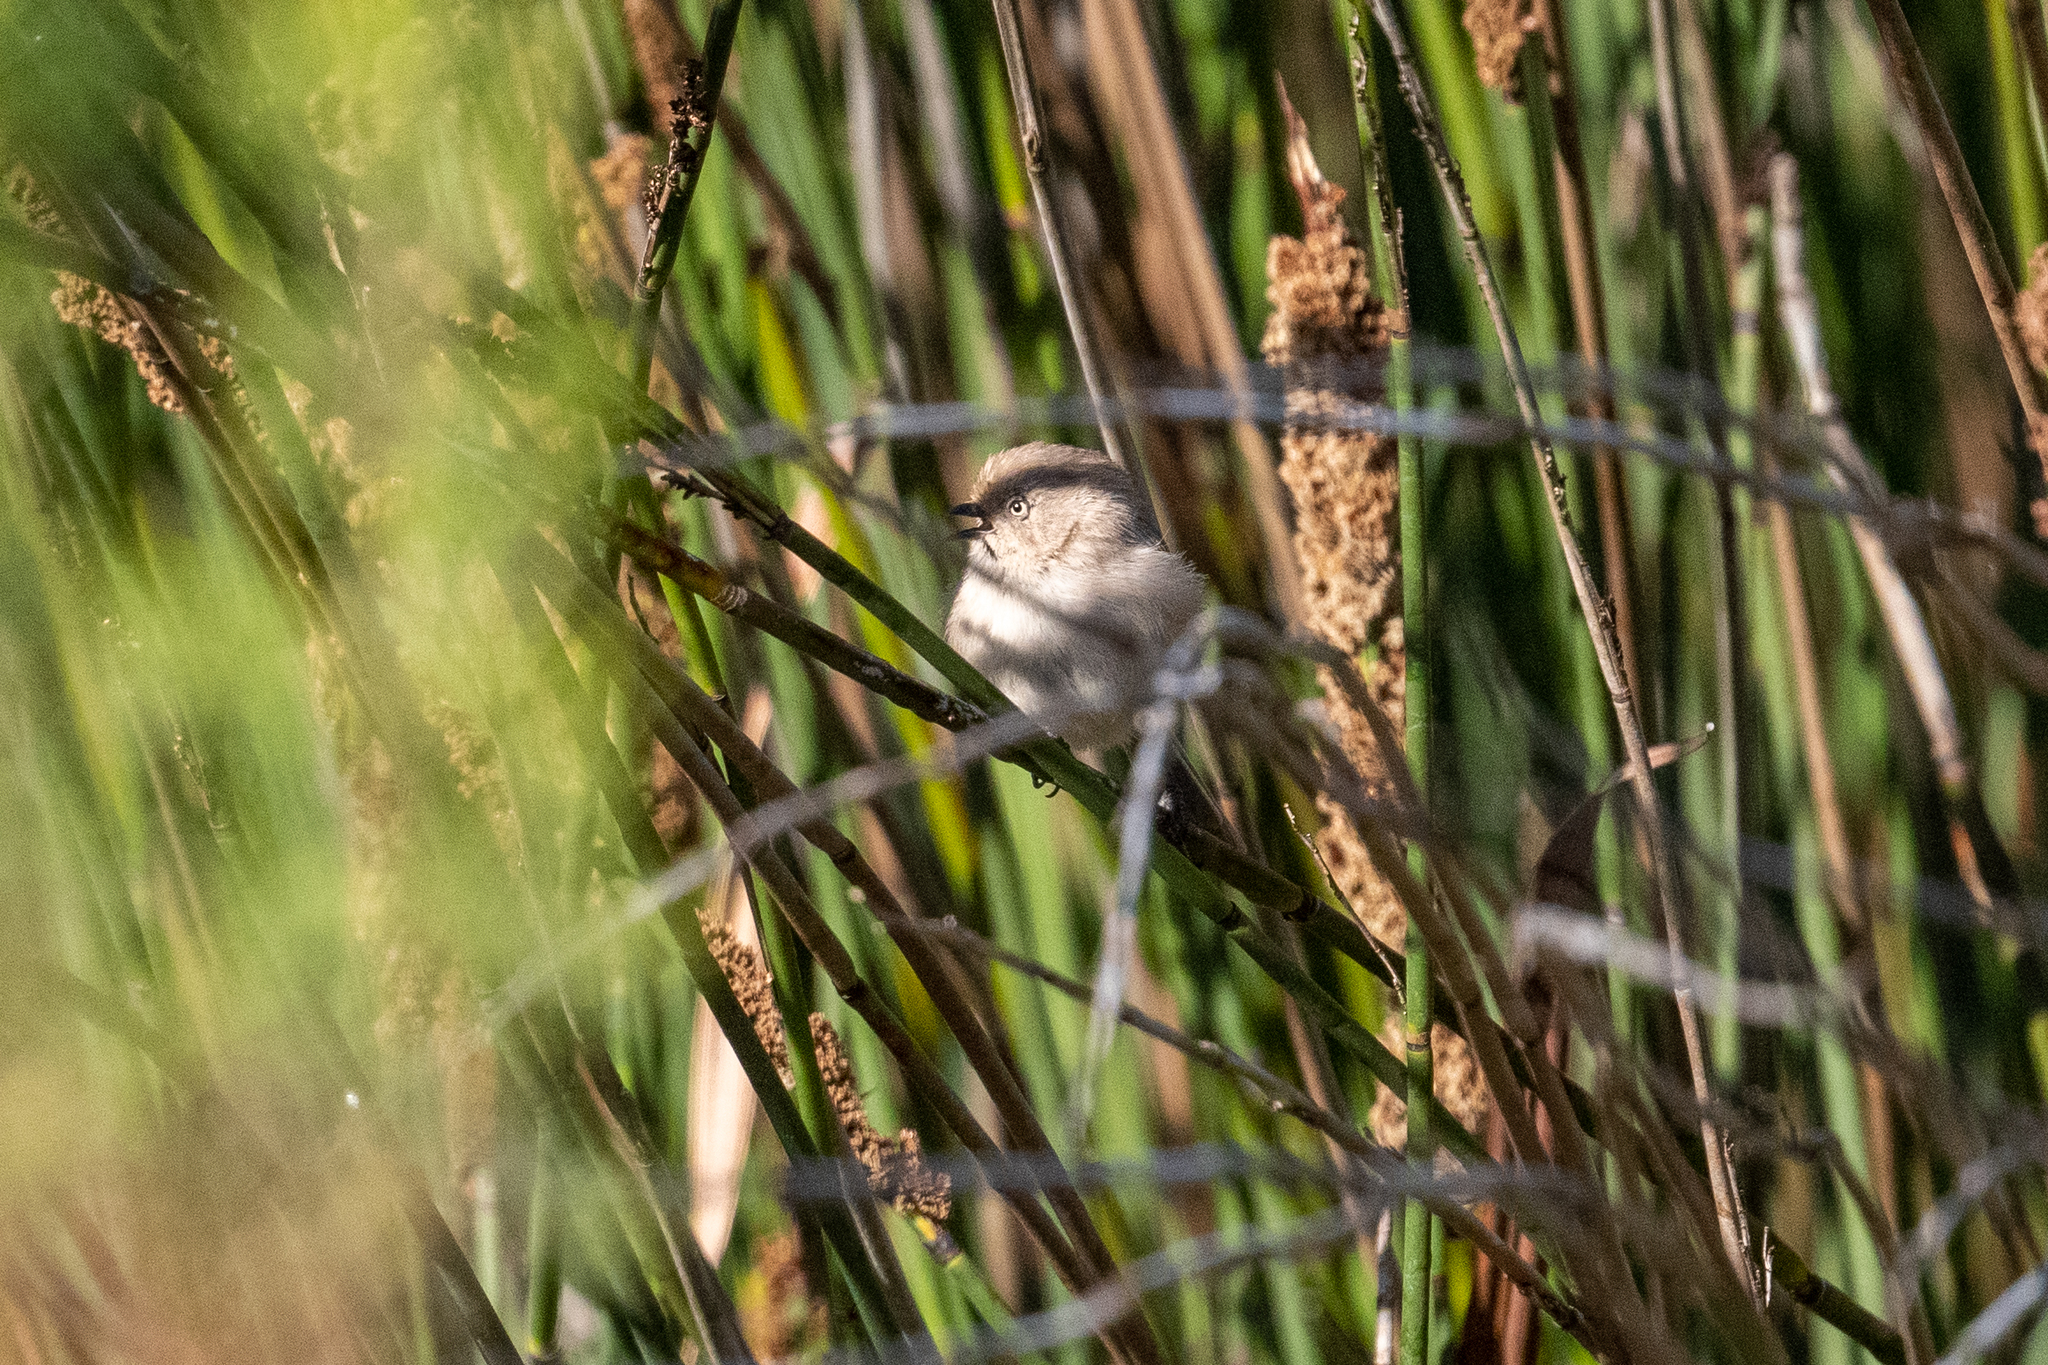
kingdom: Animalia
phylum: Chordata
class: Aves
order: Passeriformes
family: Aegithalidae
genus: Psaltriparus
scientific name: Psaltriparus minimus
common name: American bushtit
